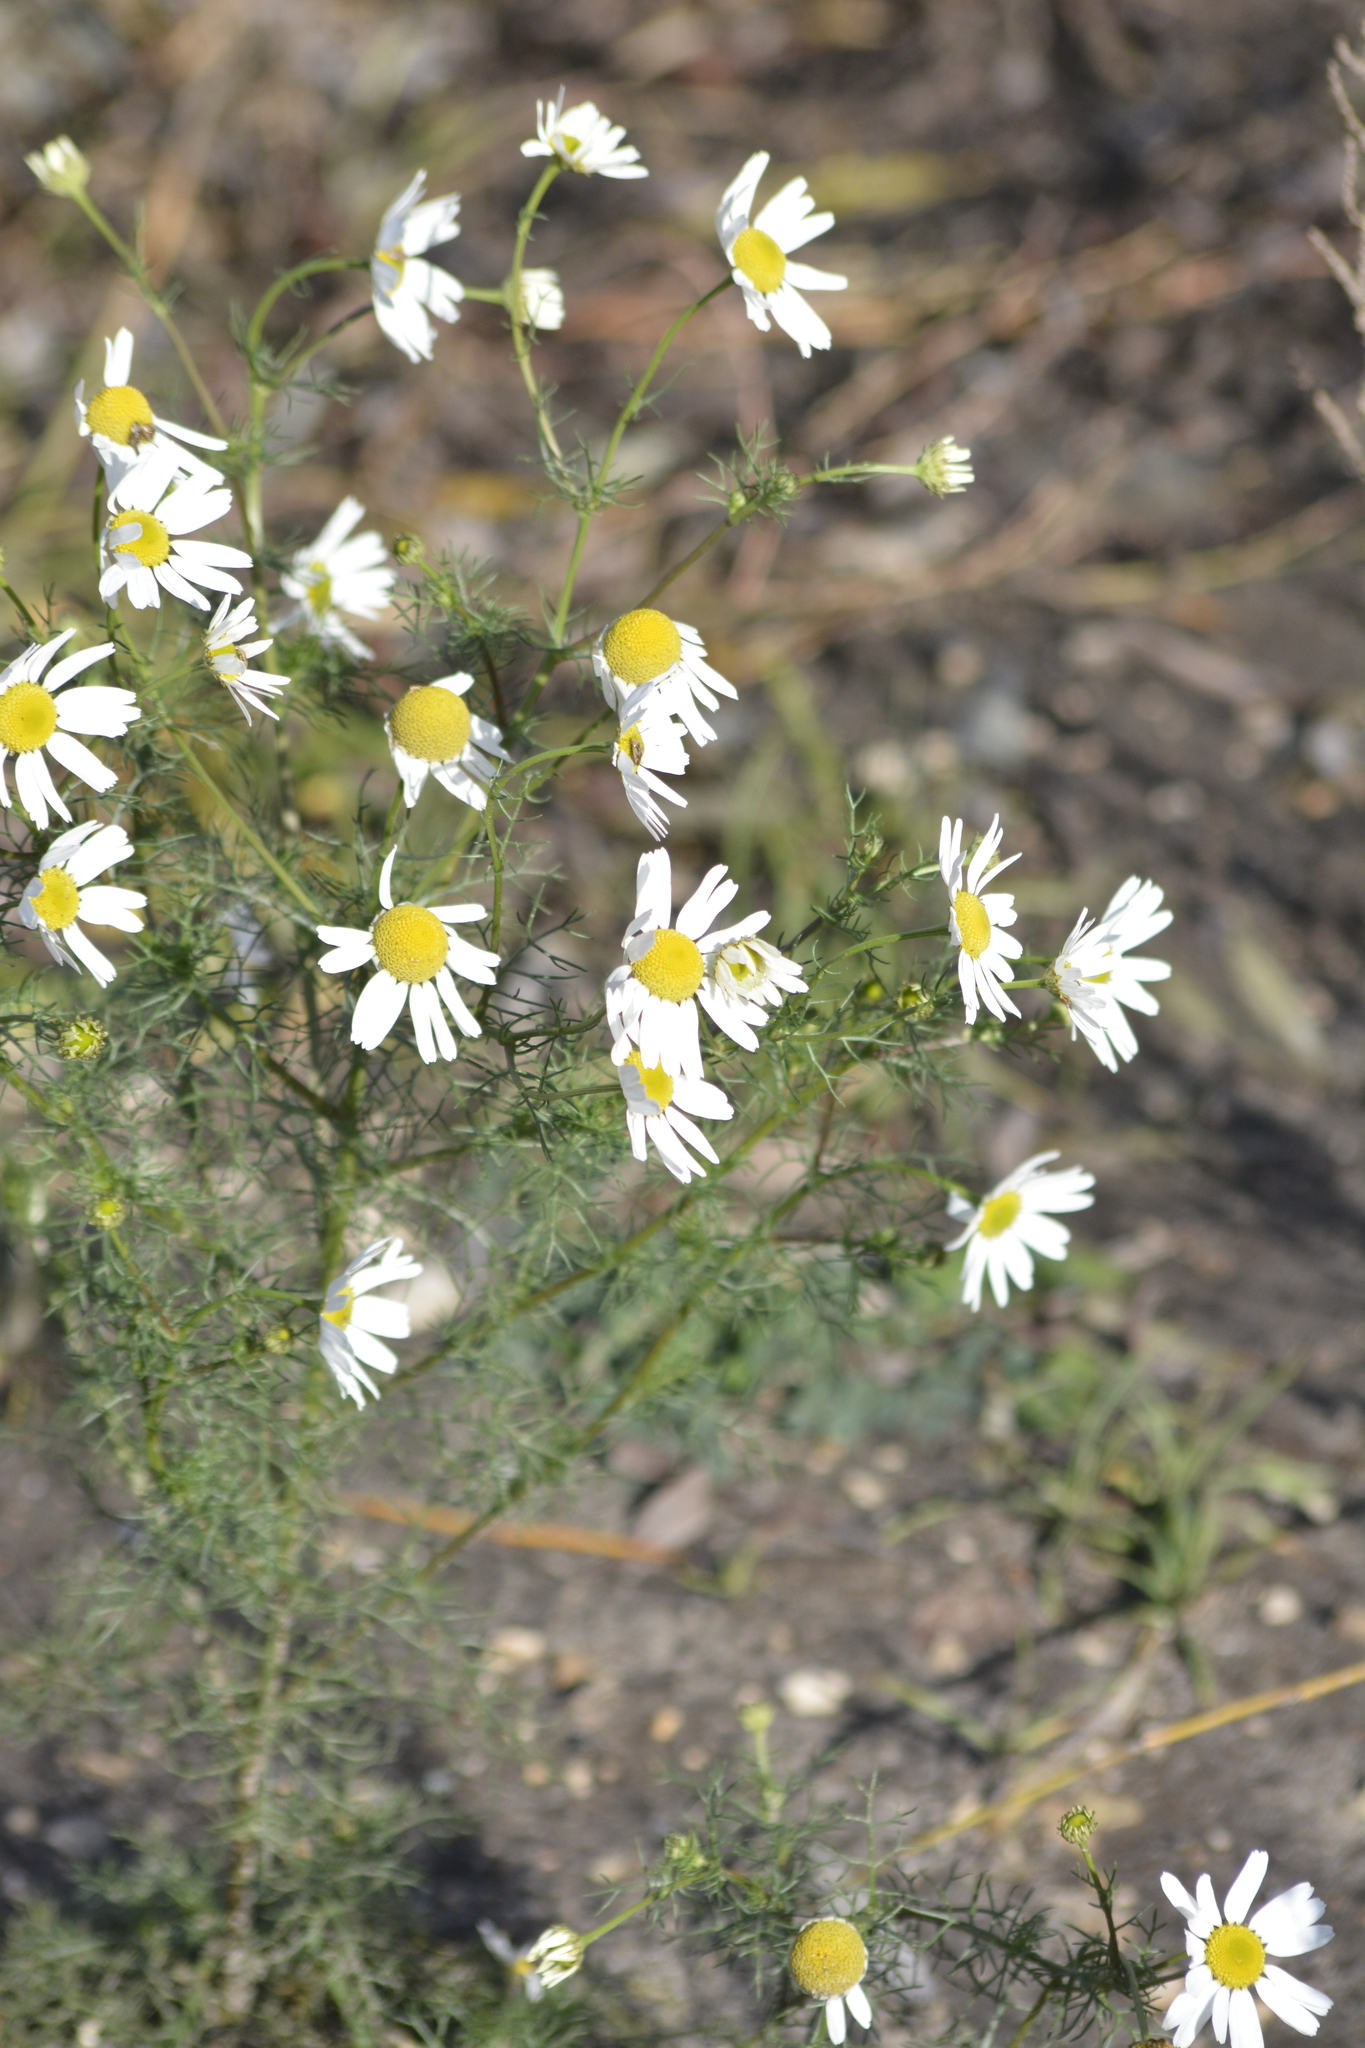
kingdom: Plantae
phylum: Tracheophyta
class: Magnoliopsida
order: Asterales
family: Asteraceae
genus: Tripleurospermum
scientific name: Tripleurospermum inodorum
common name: Scentless mayweed
